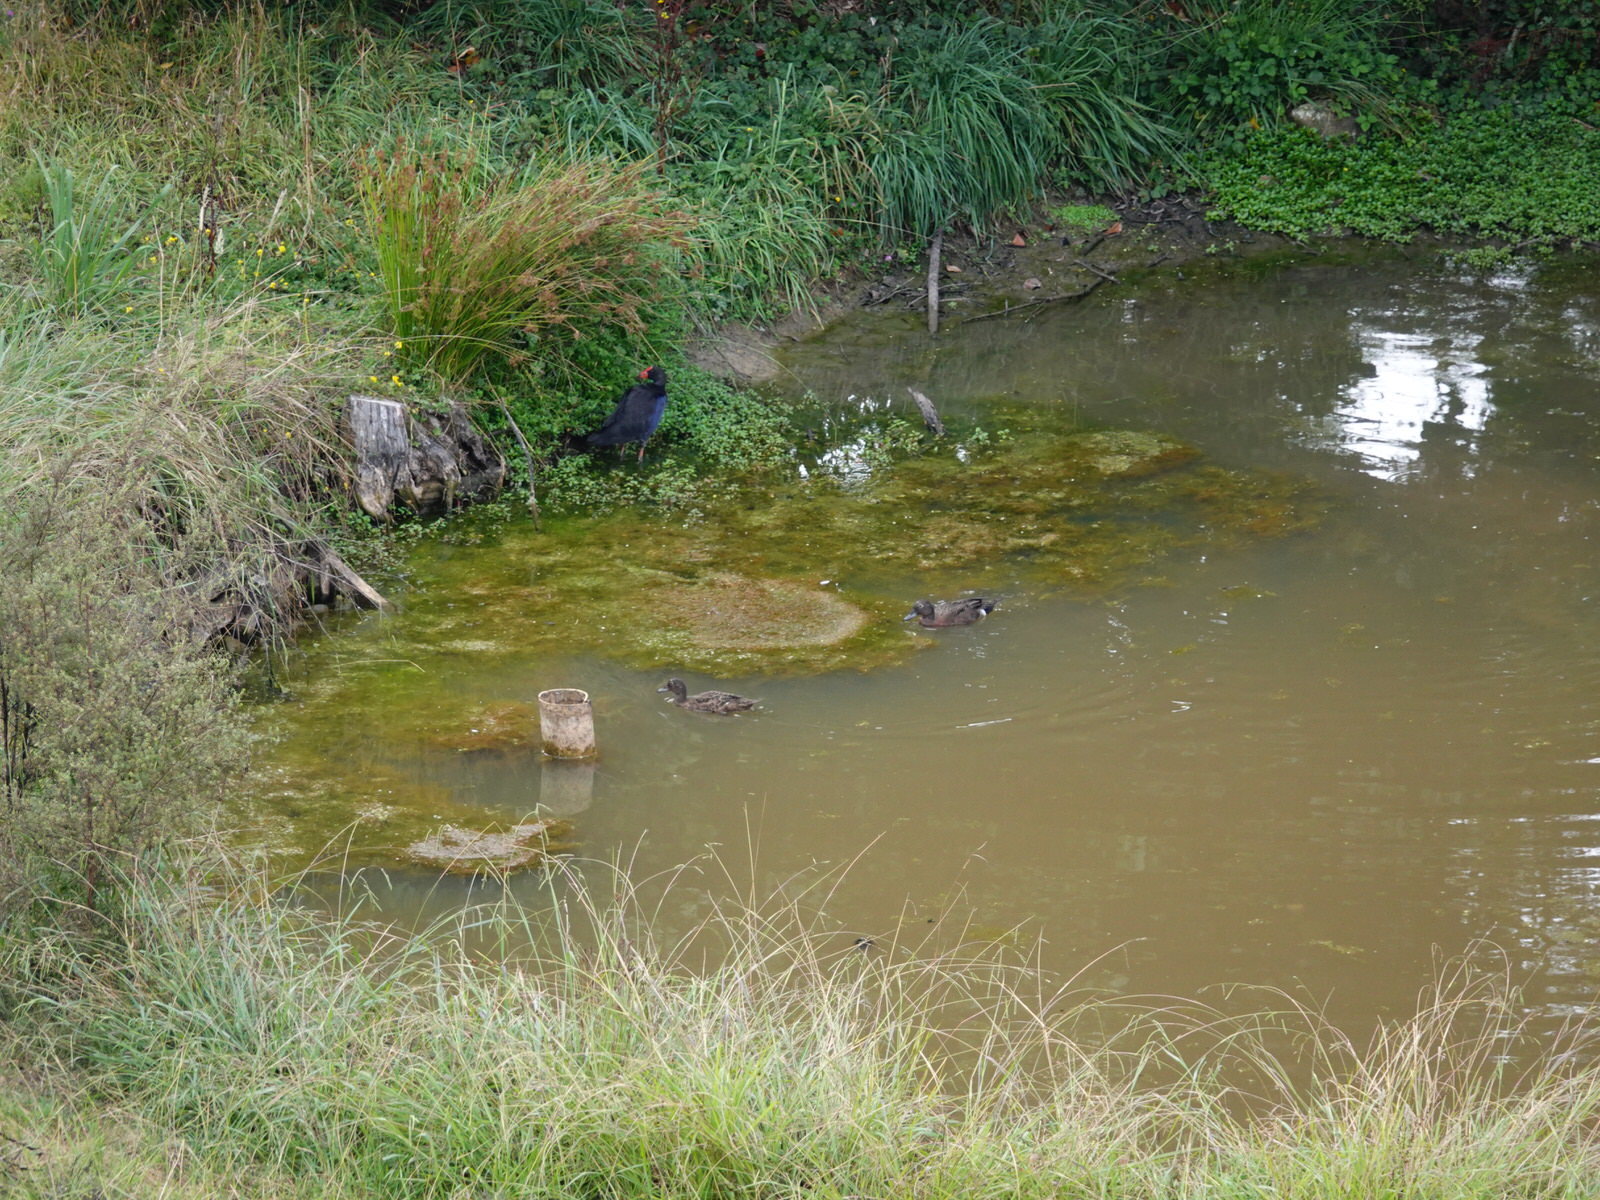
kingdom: Animalia
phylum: Chordata
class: Aves
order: Anseriformes
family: Anatidae
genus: Anas
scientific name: Anas chlorotis
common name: Brown teal
